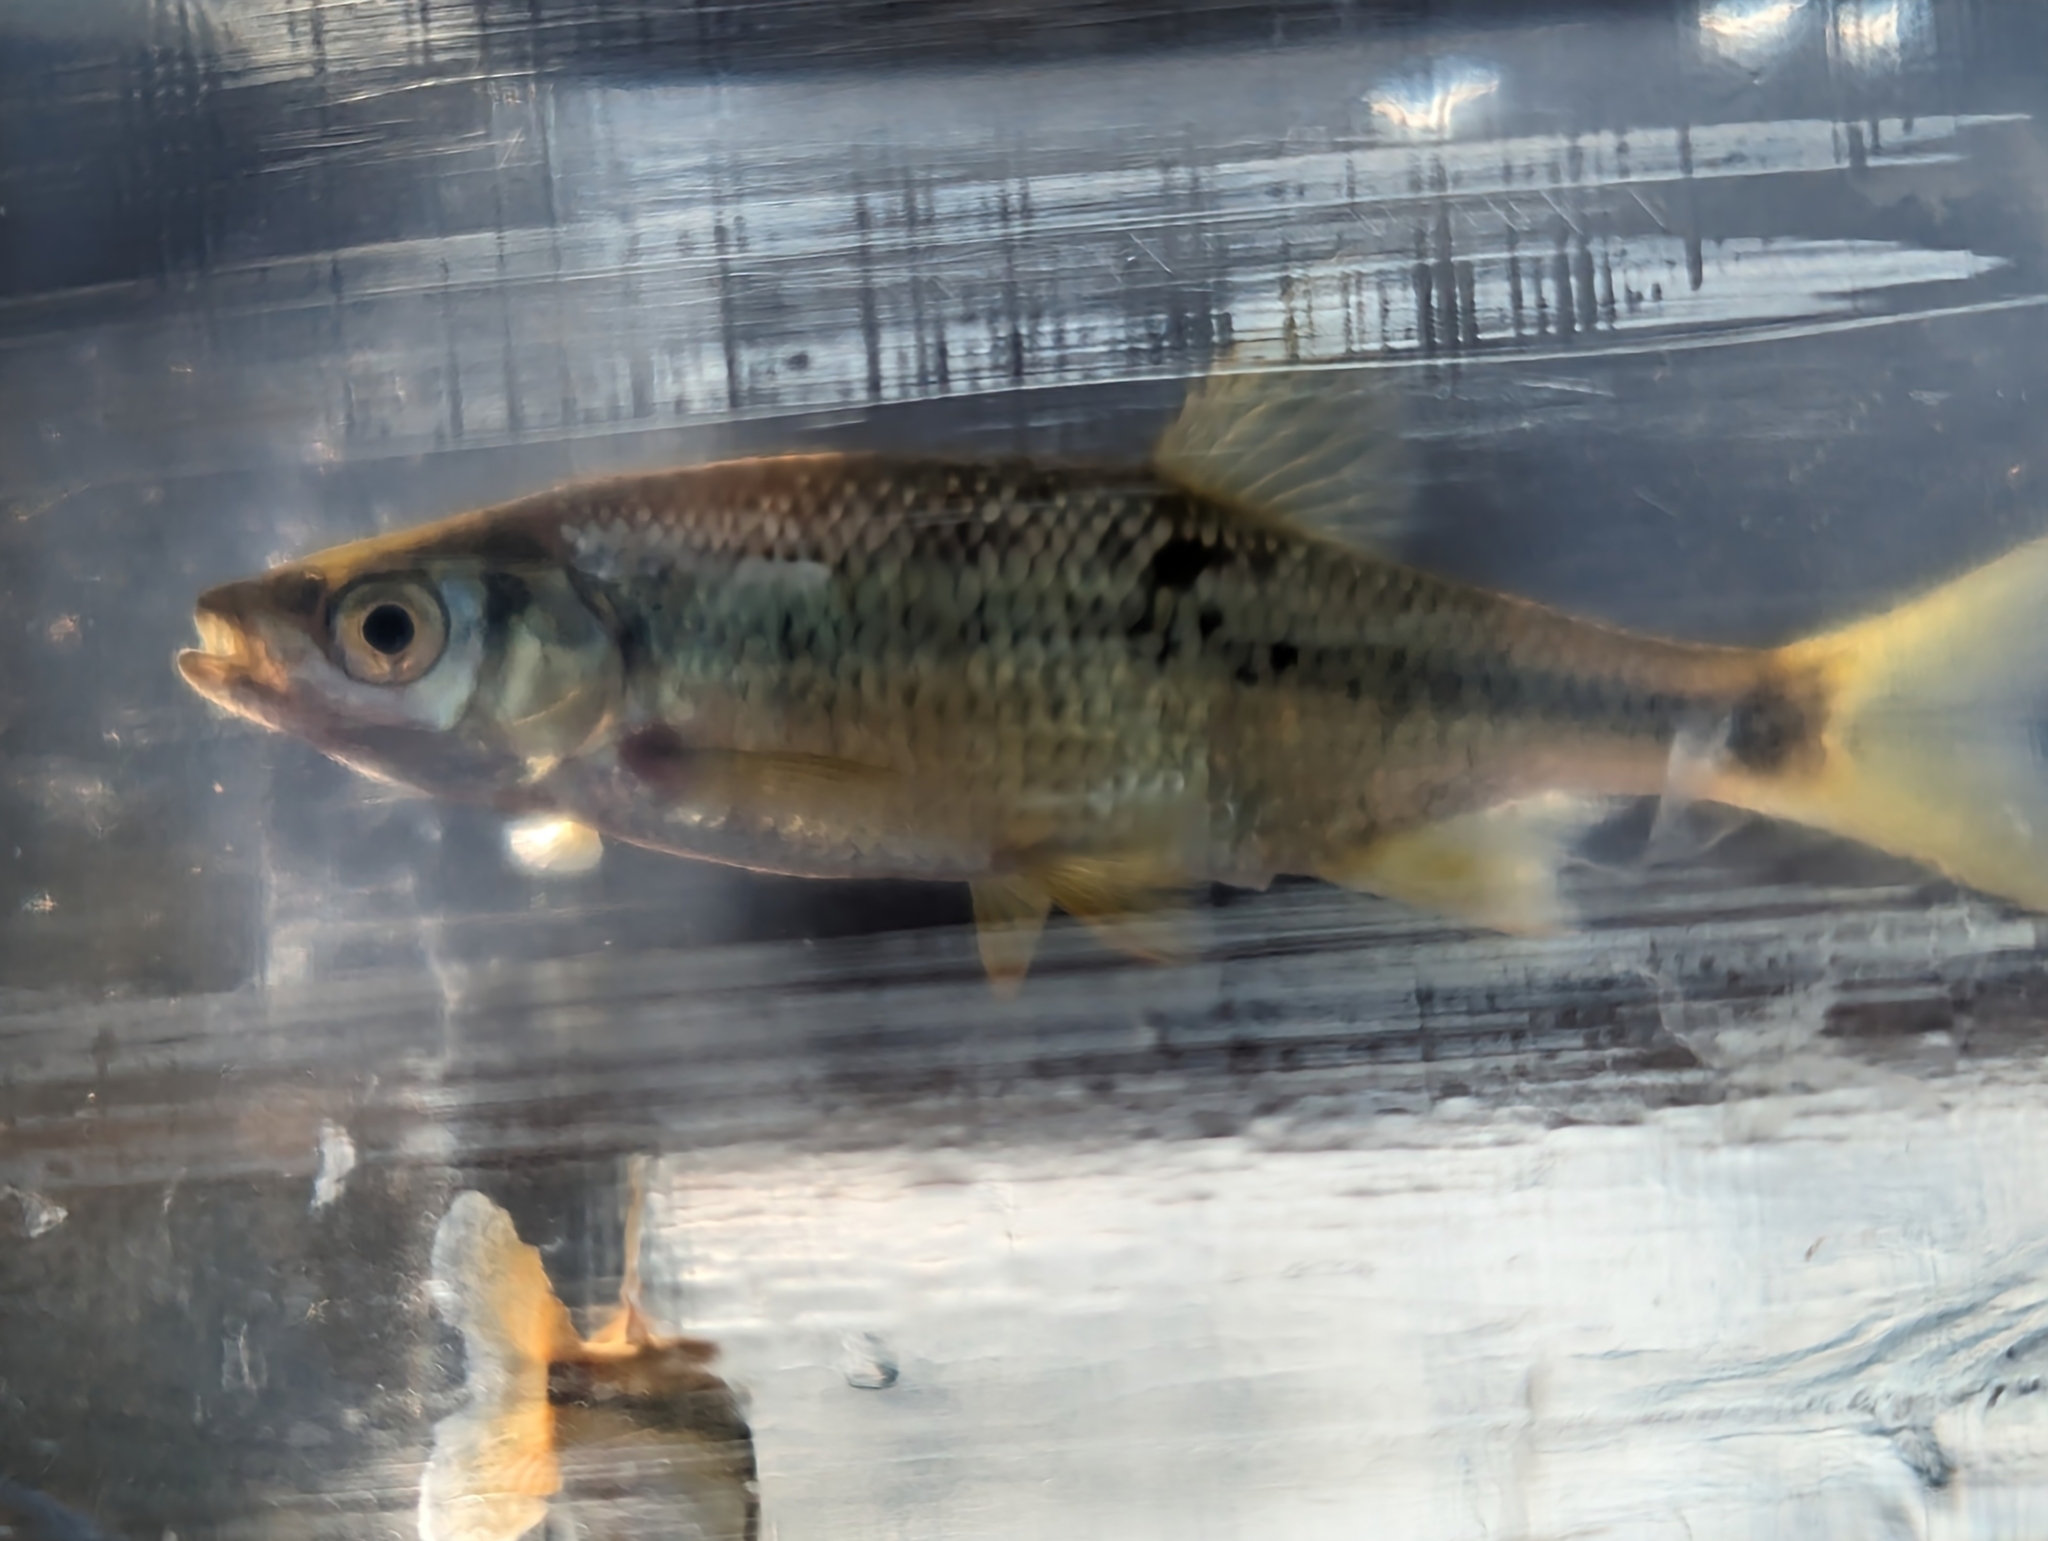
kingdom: Animalia
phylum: Chordata
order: Cypriniformes
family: Cyprinidae
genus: Notemigonus
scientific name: Notemigonus crysoleucas
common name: Golden shiner
